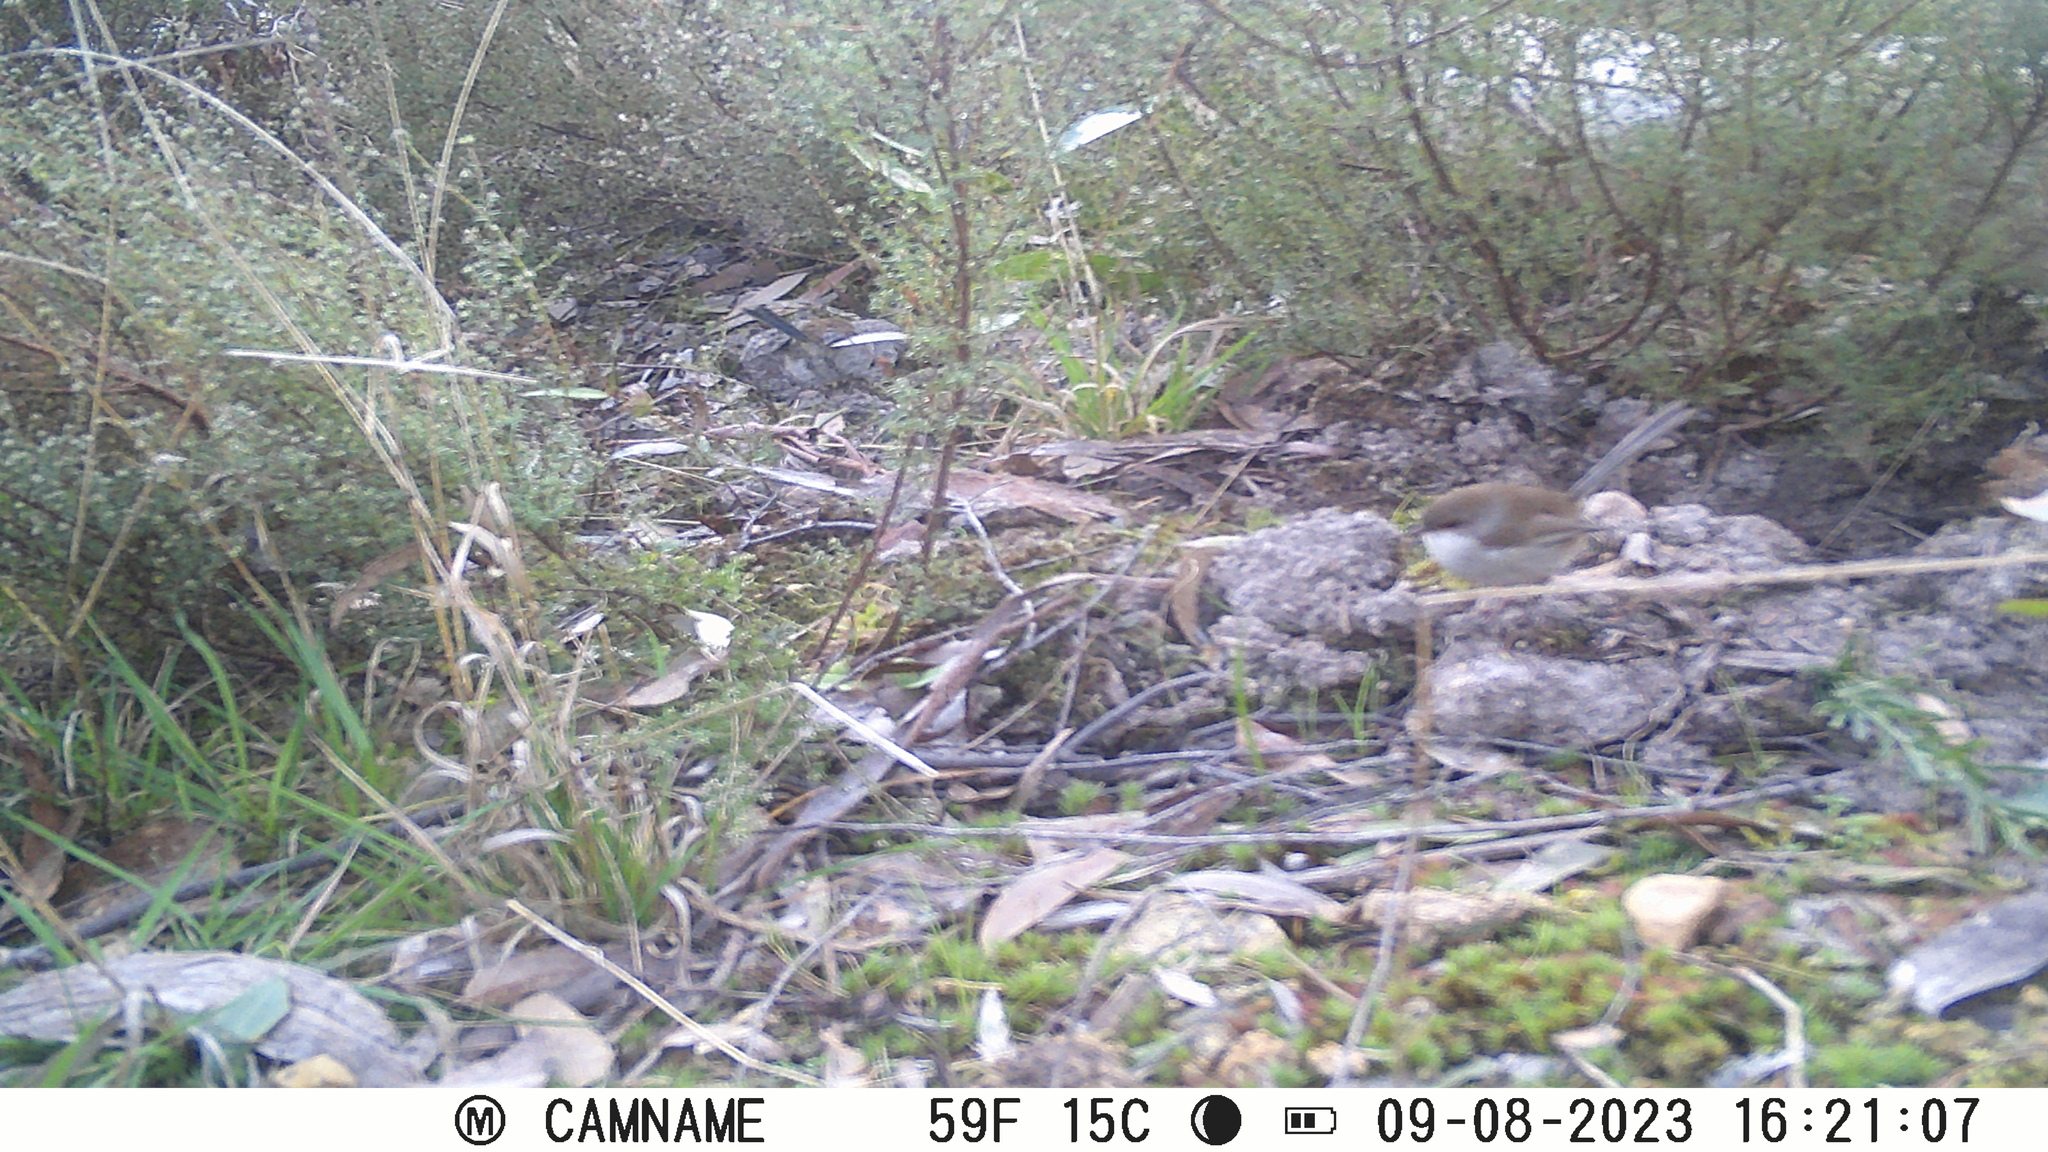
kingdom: Animalia
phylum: Chordata
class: Aves
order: Passeriformes
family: Maluridae
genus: Malurus
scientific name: Malurus cyaneus
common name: Superb fairywren
